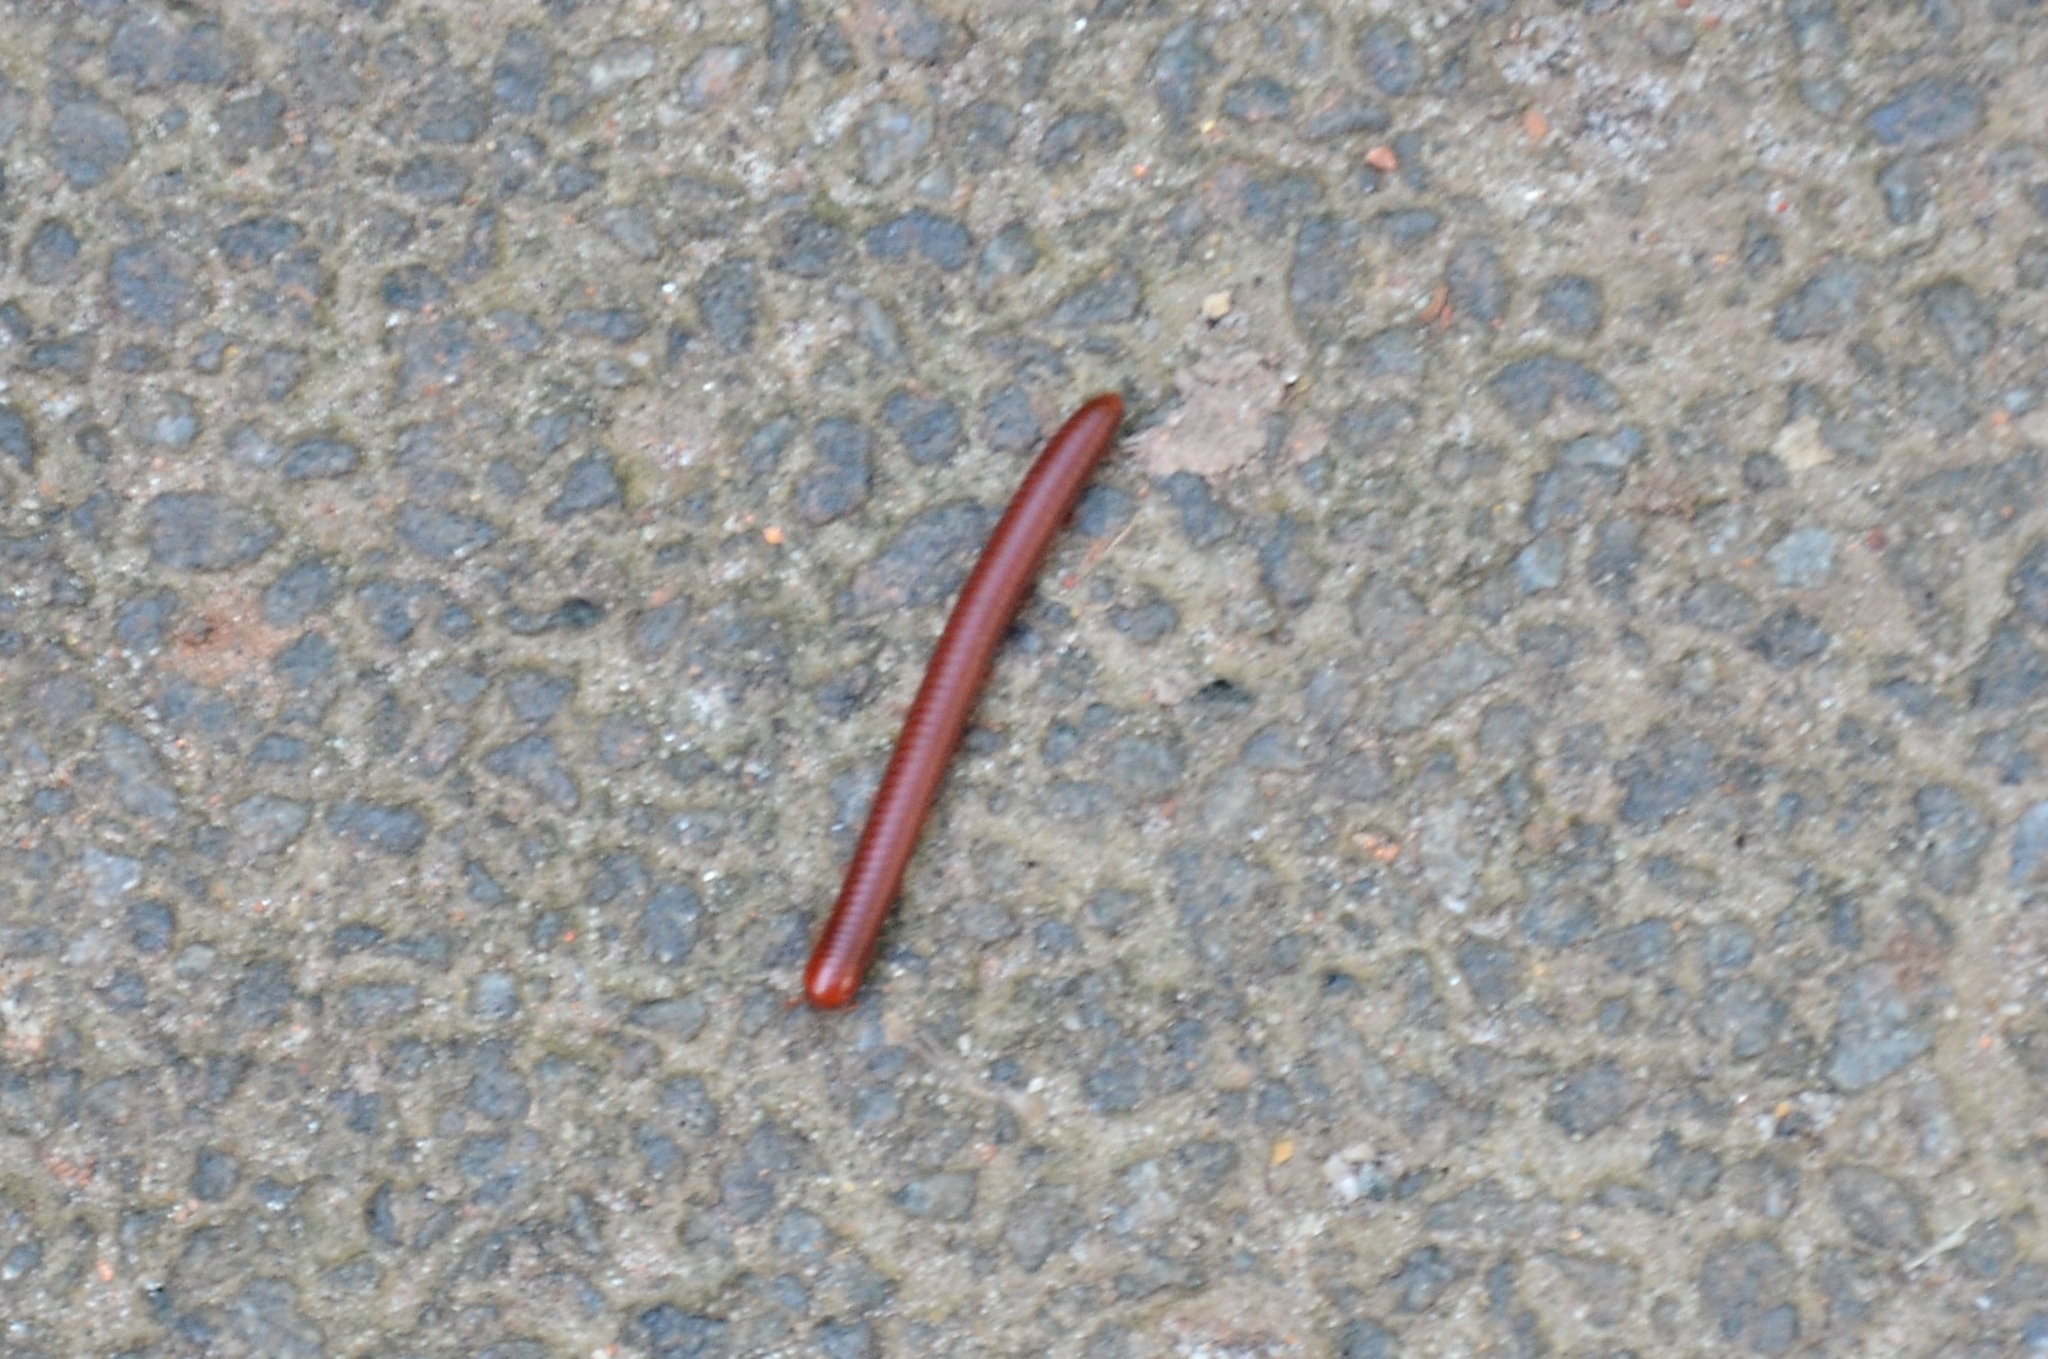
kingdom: Animalia
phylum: Arthropoda
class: Diplopoda
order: Spirobolida
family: Pachybolidae
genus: Trigoniulus
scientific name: Trigoniulus corallinus
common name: Millipede
